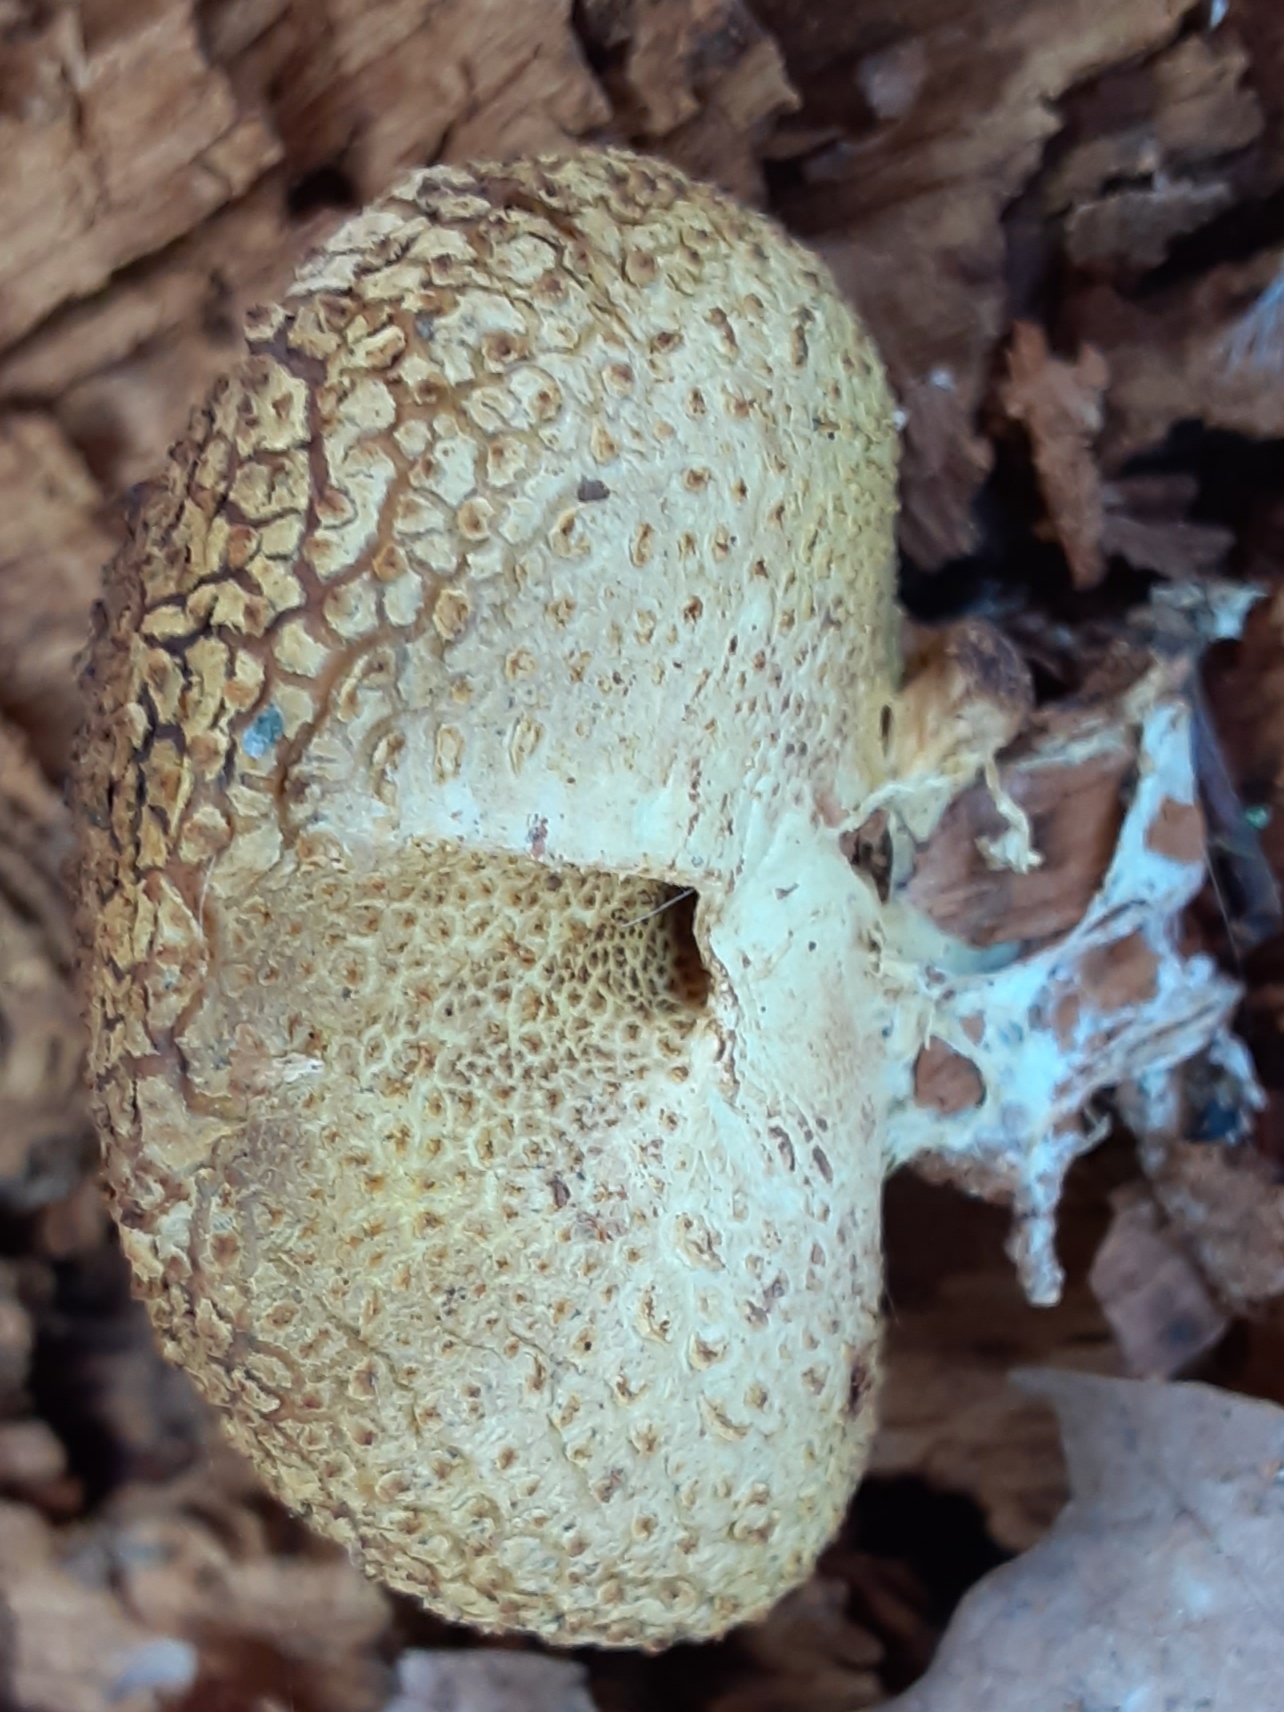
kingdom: Fungi
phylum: Basidiomycota
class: Agaricomycetes
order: Boletales
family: Sclerodermataceae
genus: Scleroderma
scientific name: Scleroderma citrinum
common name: Common earthball
